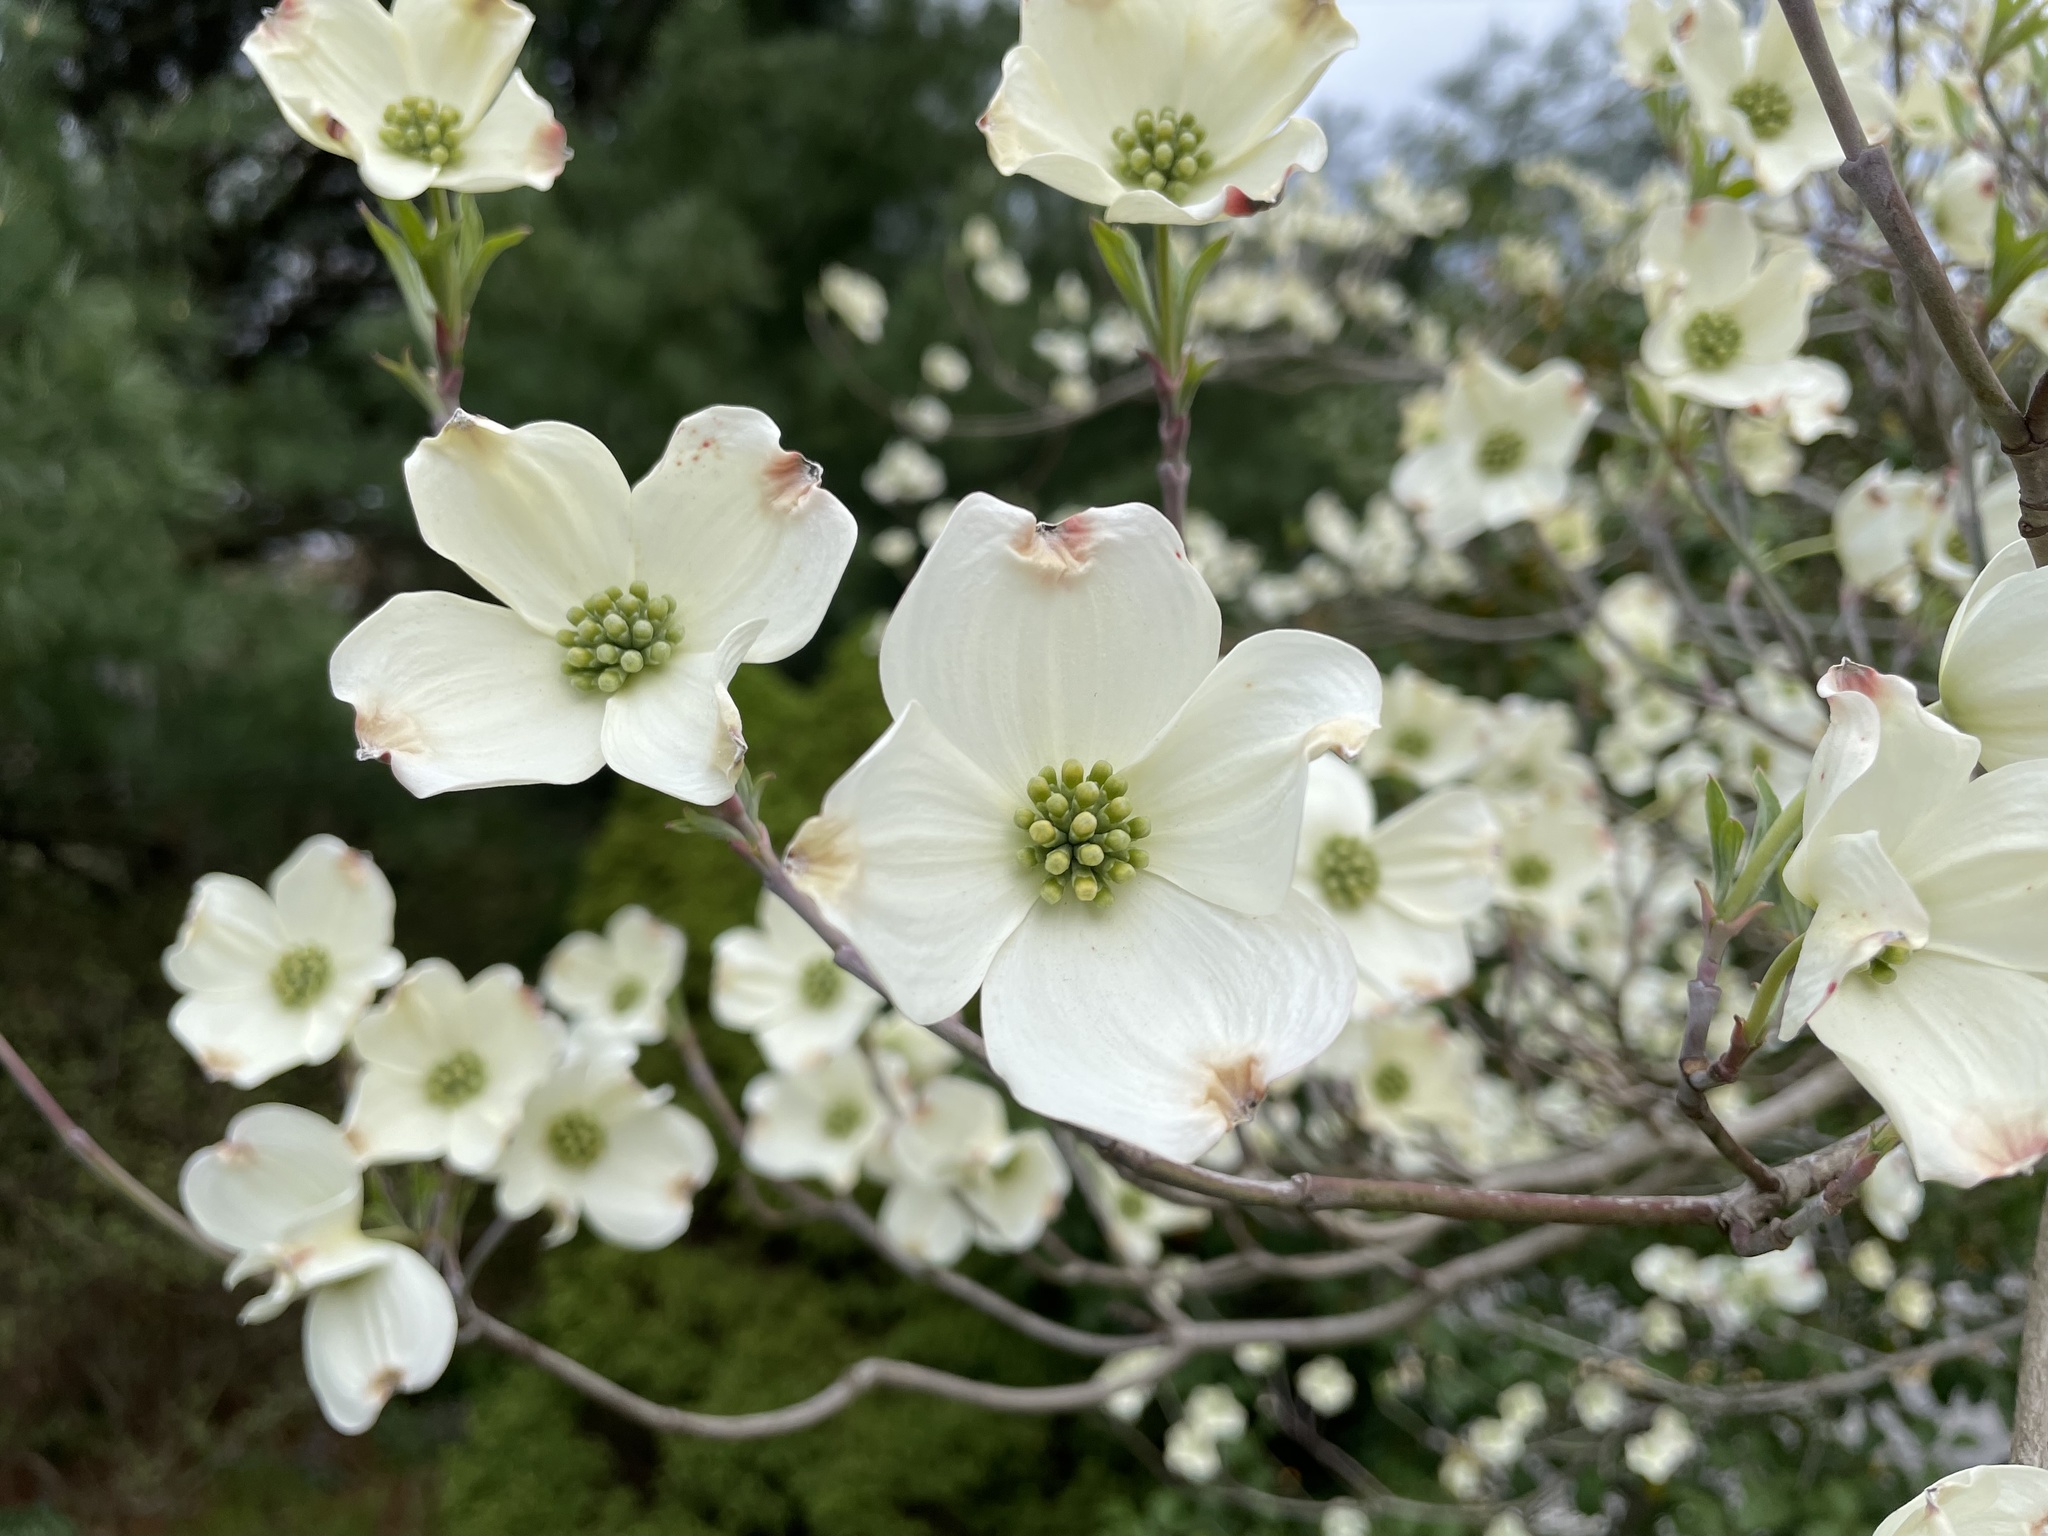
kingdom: Plantae
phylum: Tracheophyta
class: Magnoliopsida
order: Cornales
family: Cornaceae
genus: Cornus
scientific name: Cornus florida
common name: Flowering dogwood
